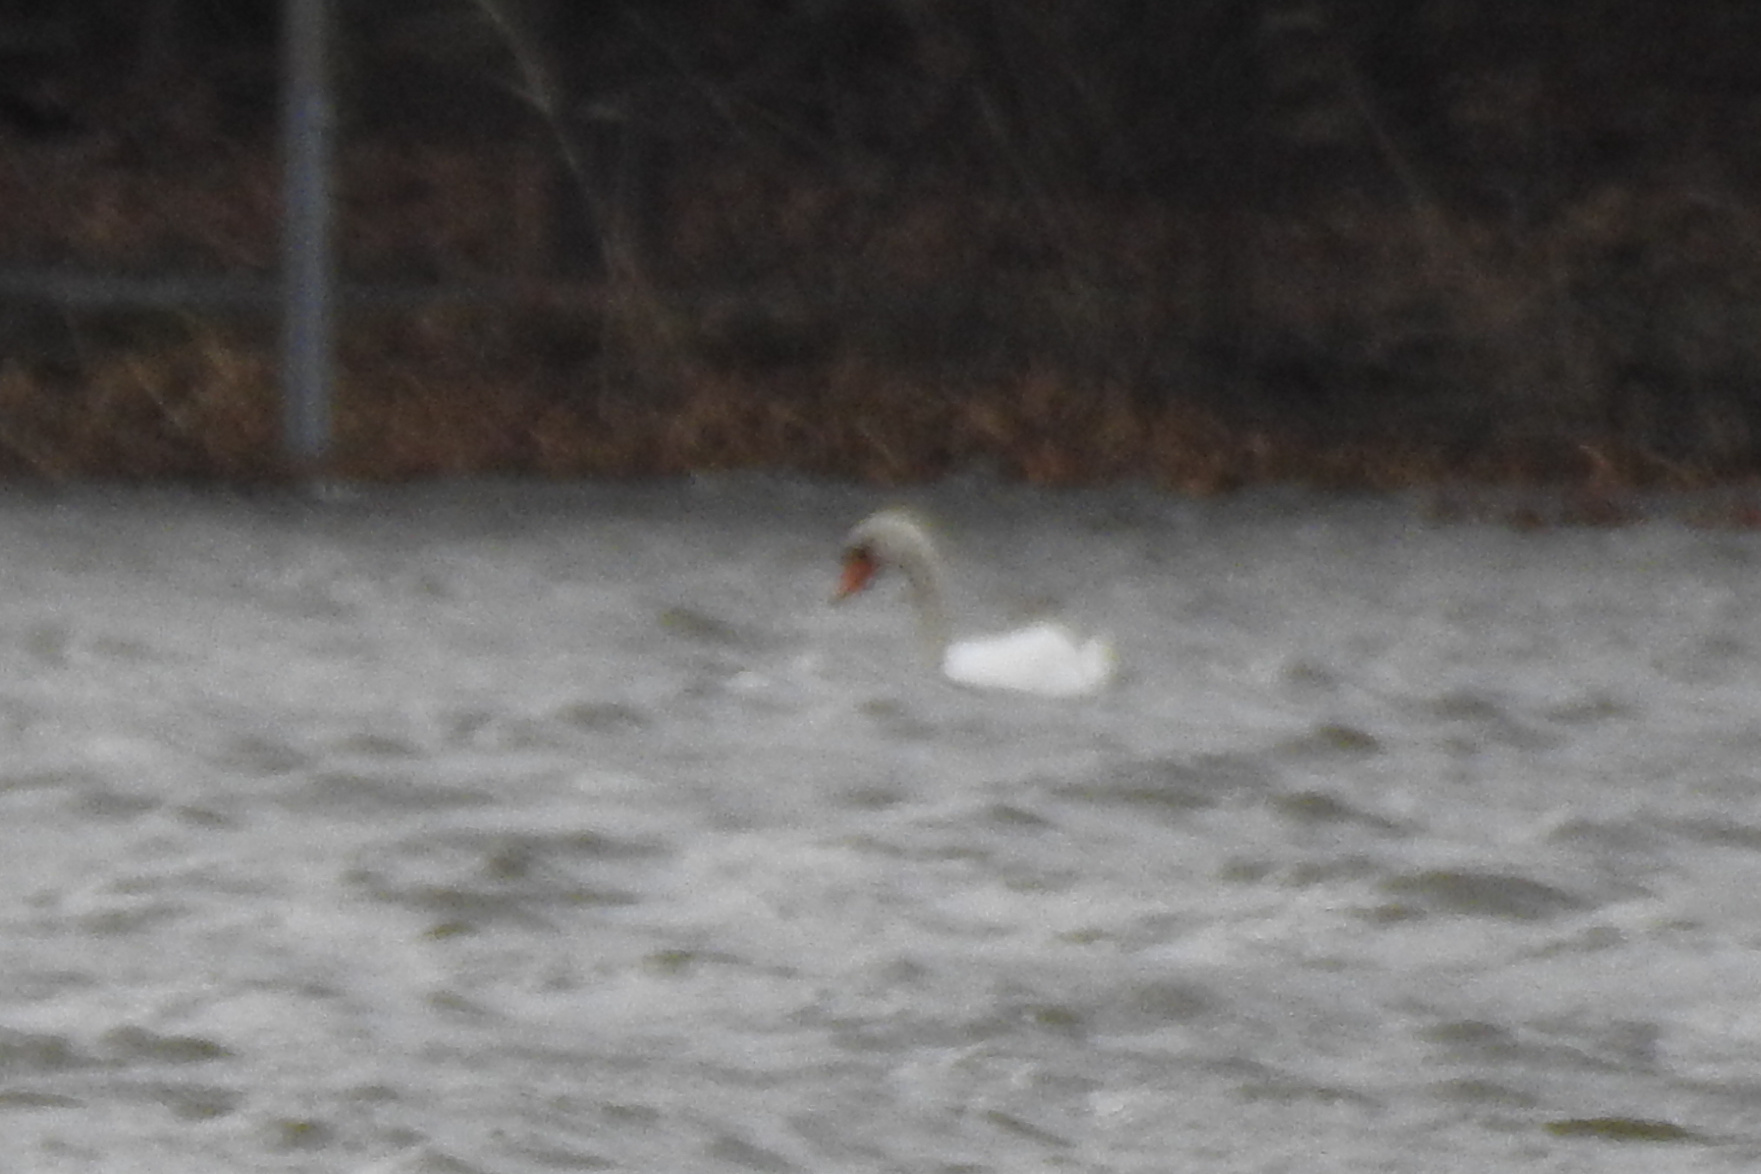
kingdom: Animalia
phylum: Chordata
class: Aves
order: Anseriformes
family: Anatidae
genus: Cygnus
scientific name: Cygnus olor
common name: Mute swan
